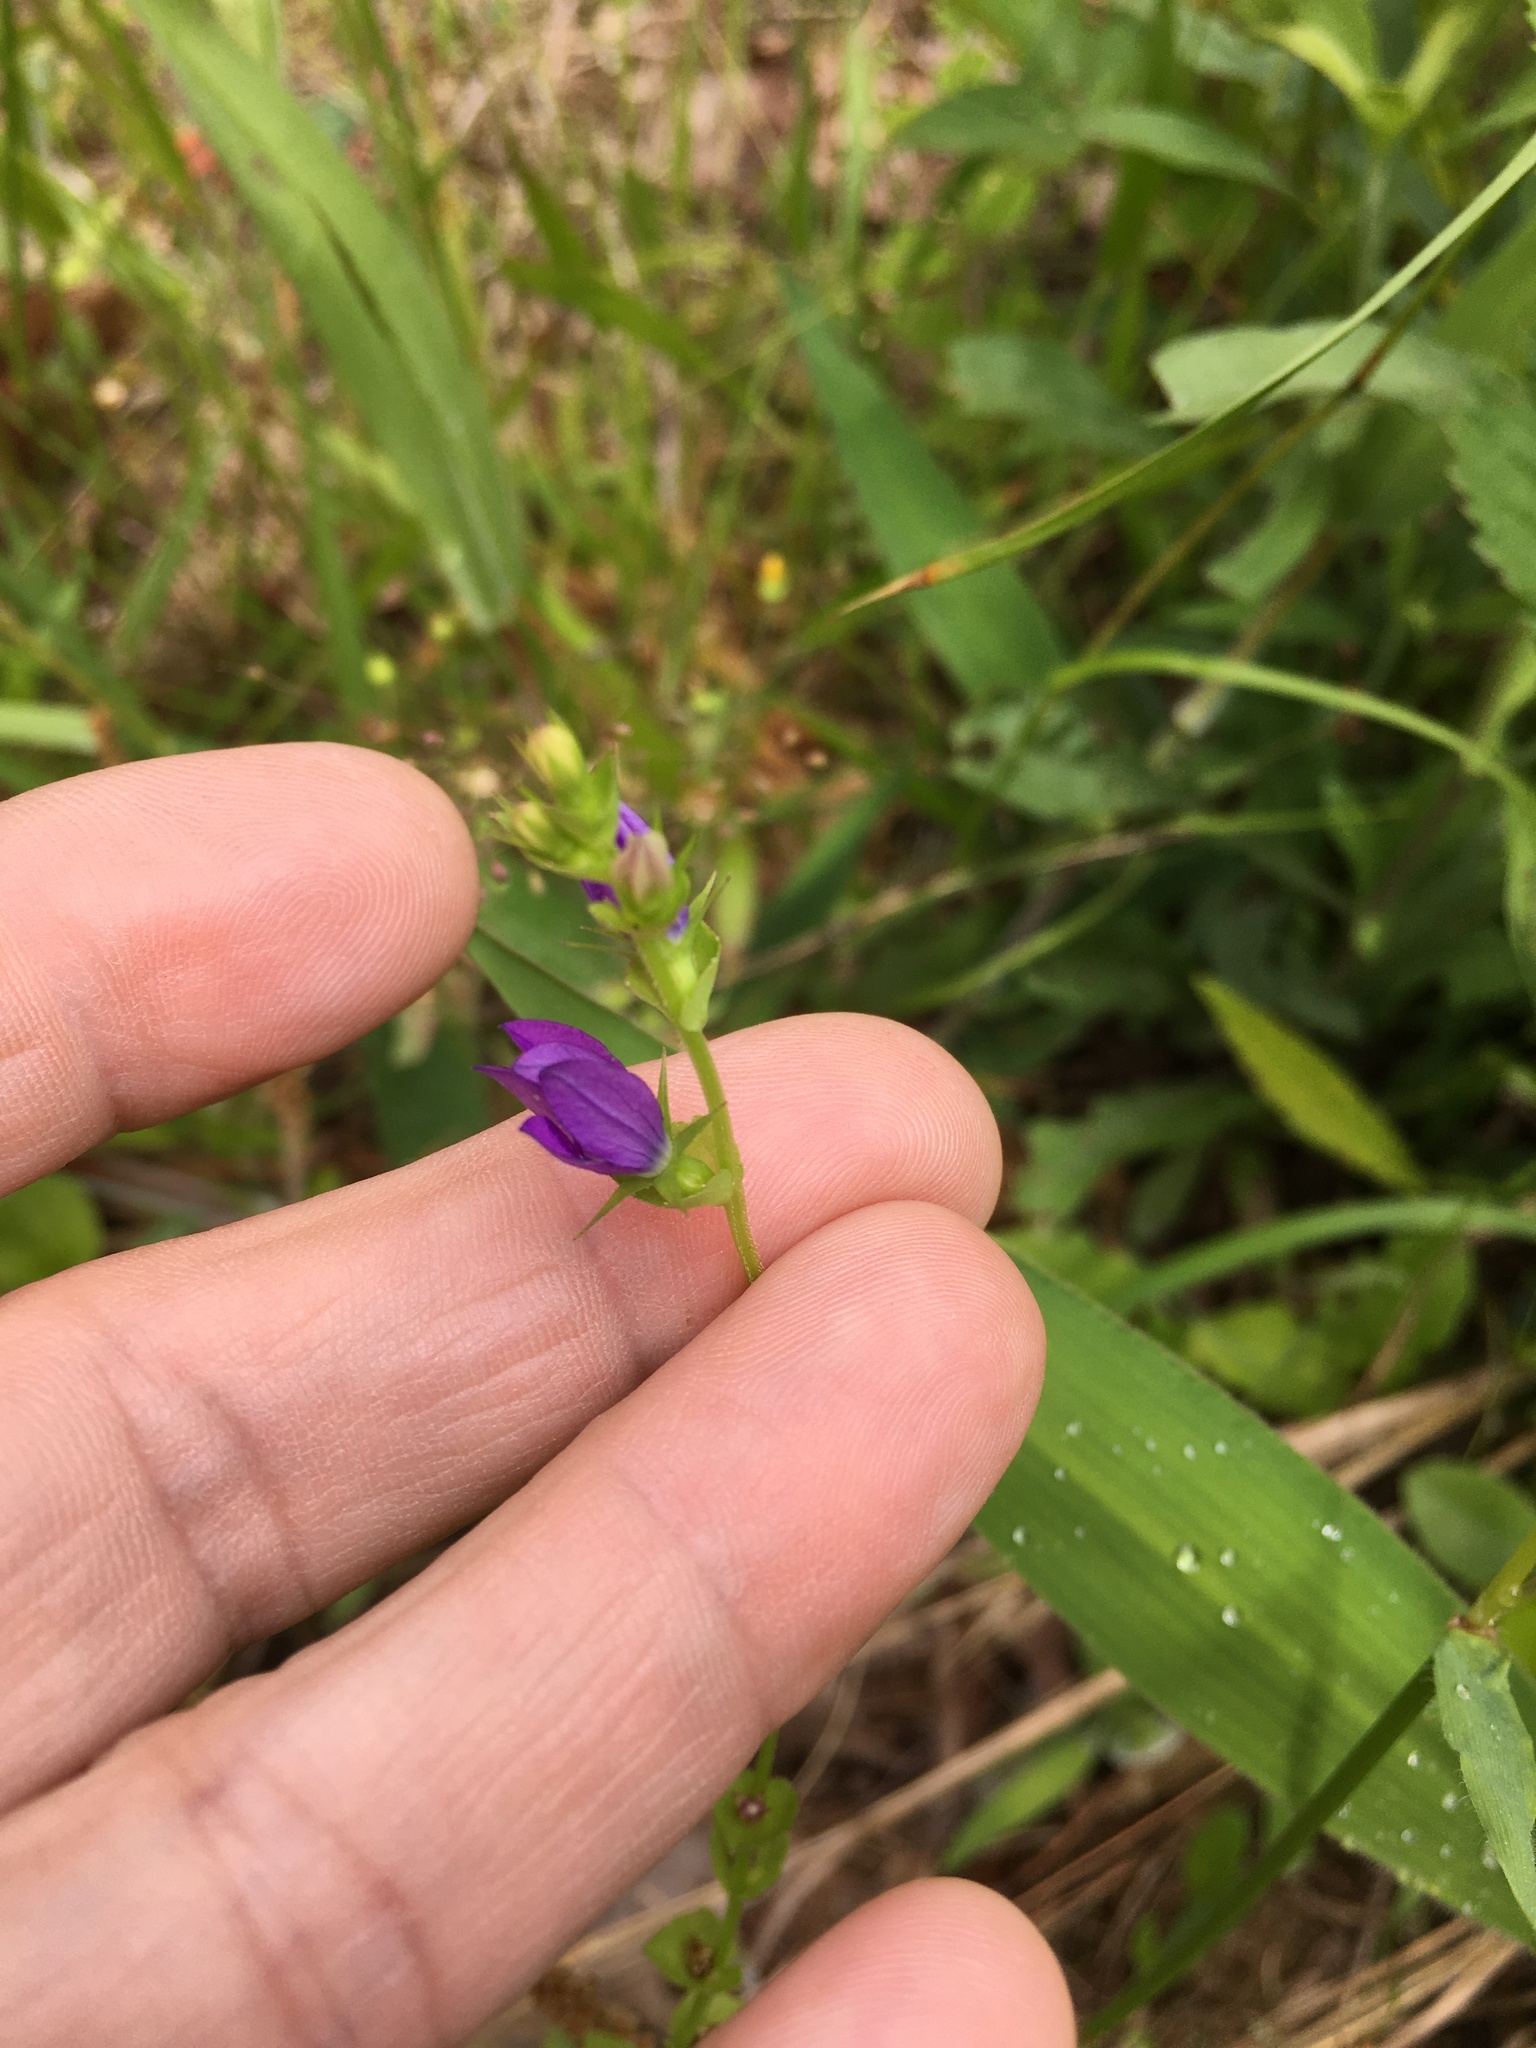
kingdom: Plantae
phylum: Tracheophyta
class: Magnoliopsida
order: Asterales
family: Campanulaceae
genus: Triodanis
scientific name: Triodanis perfoliata
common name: Clasping venus' looking-glass
